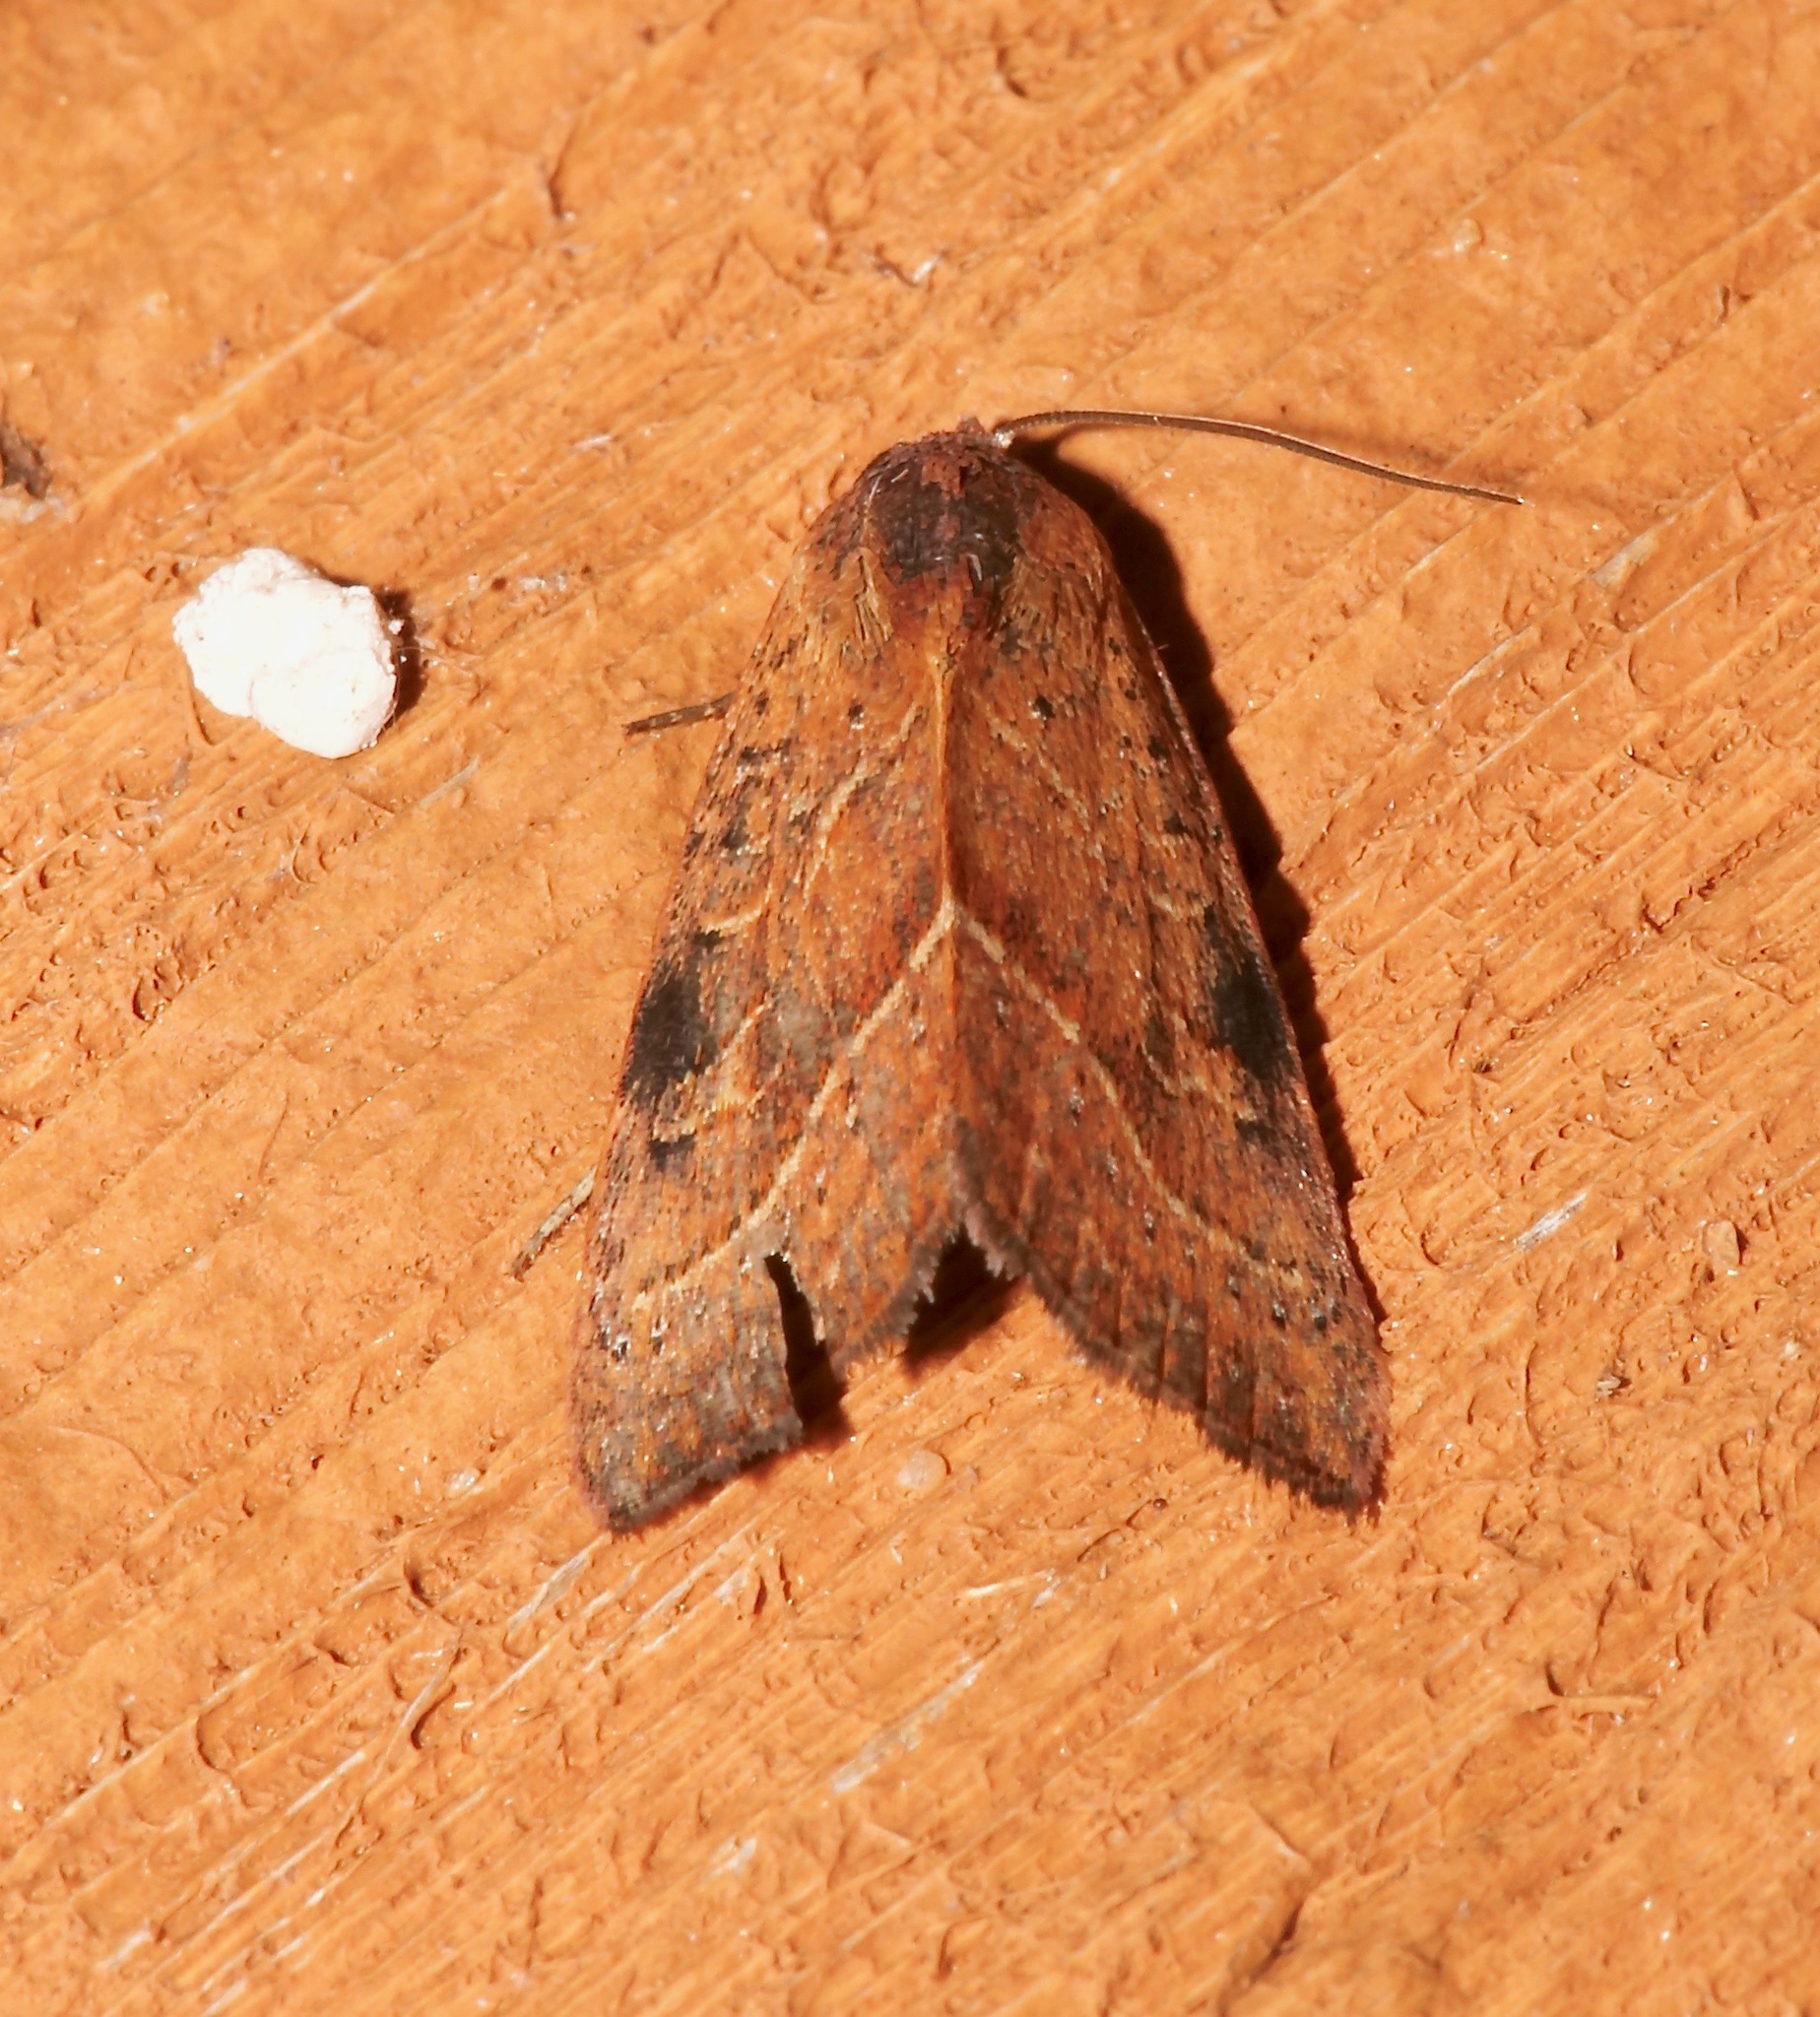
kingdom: Animalia
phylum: Arthropoda
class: Insecta
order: Lepidoptera
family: Noctuidae
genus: Galgula
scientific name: Galgula partita
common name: Wedgeling
